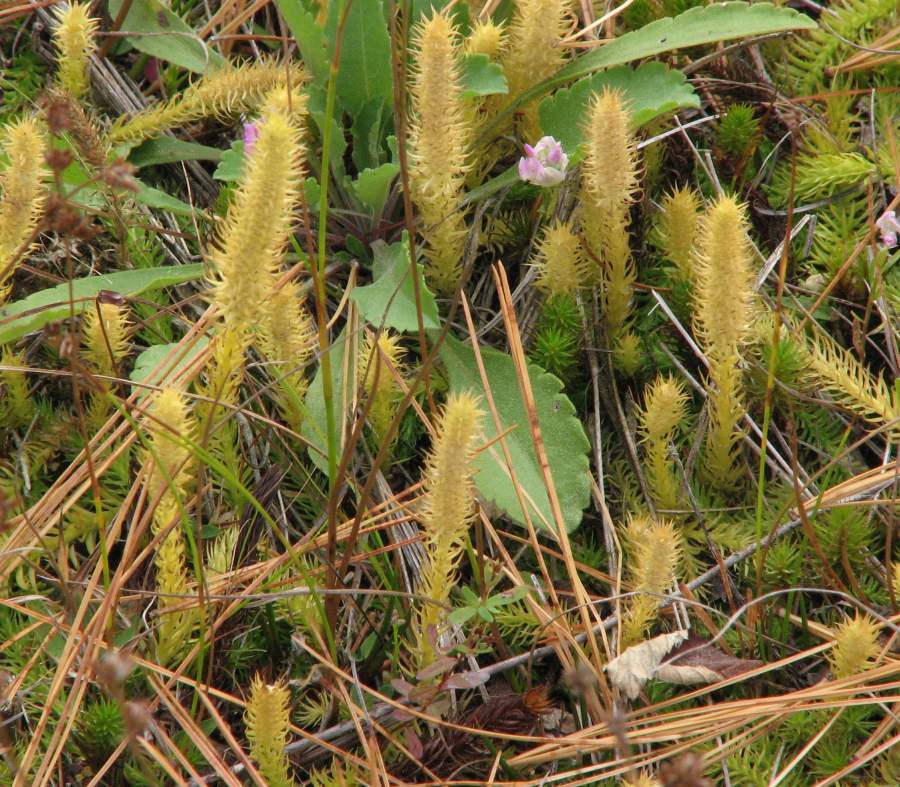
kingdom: Plantae
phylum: Tracheophyta
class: Lycopodiopsida
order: Lycopodiales
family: Lycopodiaceae
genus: Lycopodiella
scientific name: Lycopodiella inundata
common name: Marsh clubmoss
